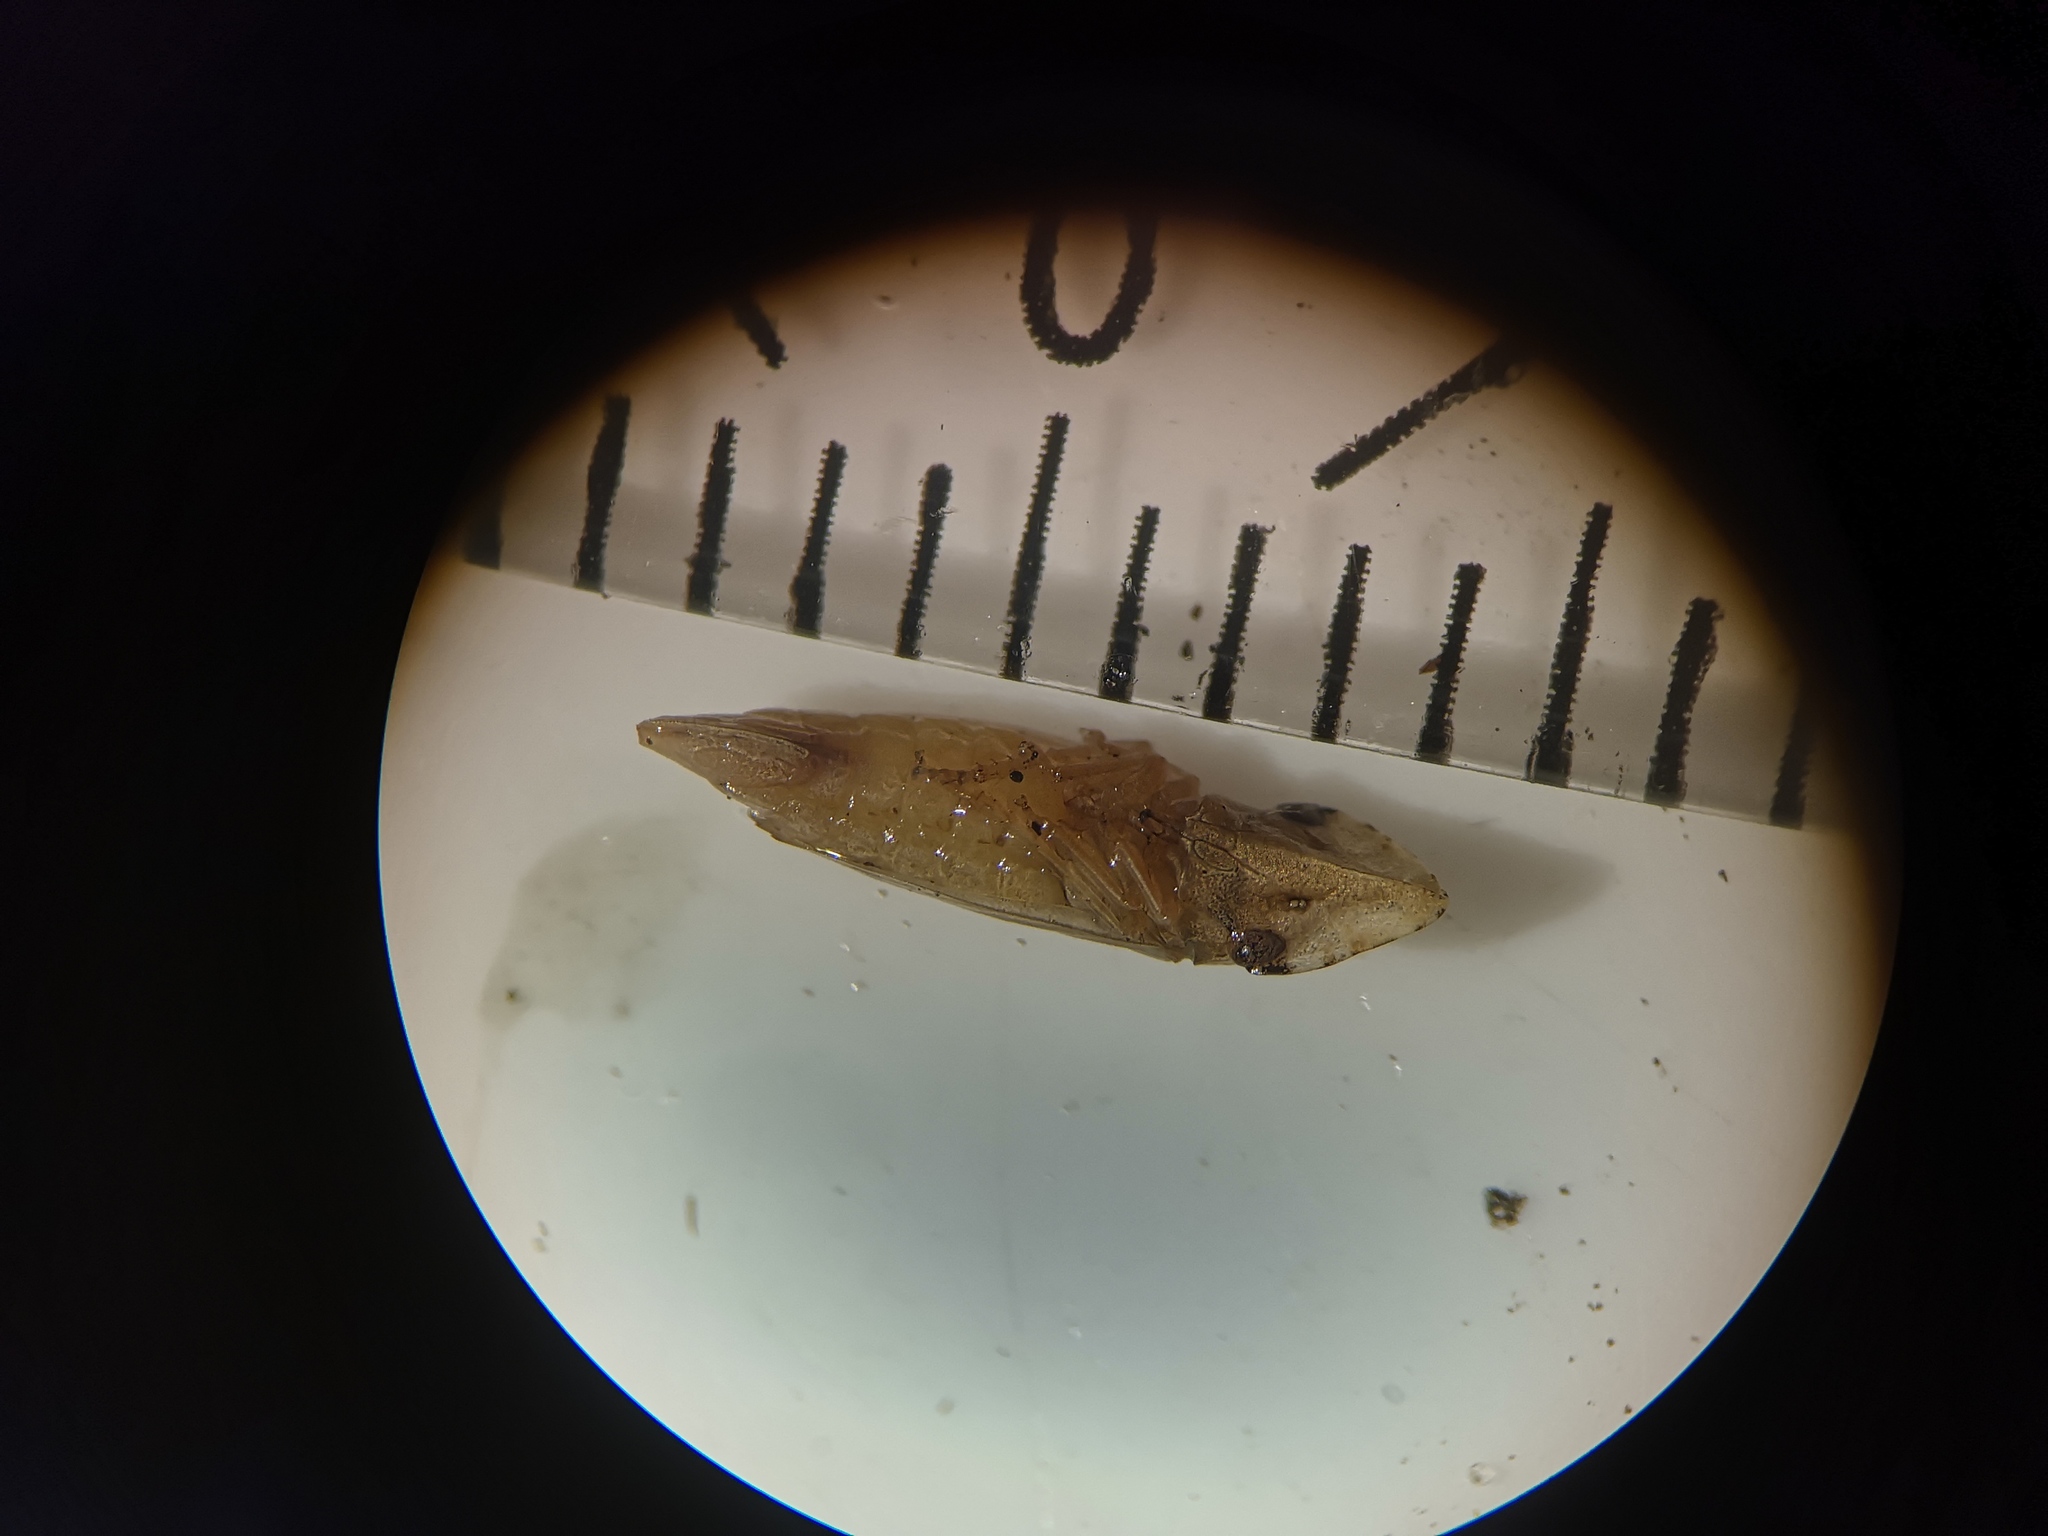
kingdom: Animalia
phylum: Arthropoda
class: Insecta
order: Hemiptera
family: Cicadellidae
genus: Eupelix
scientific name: Eupelix cuspidata
